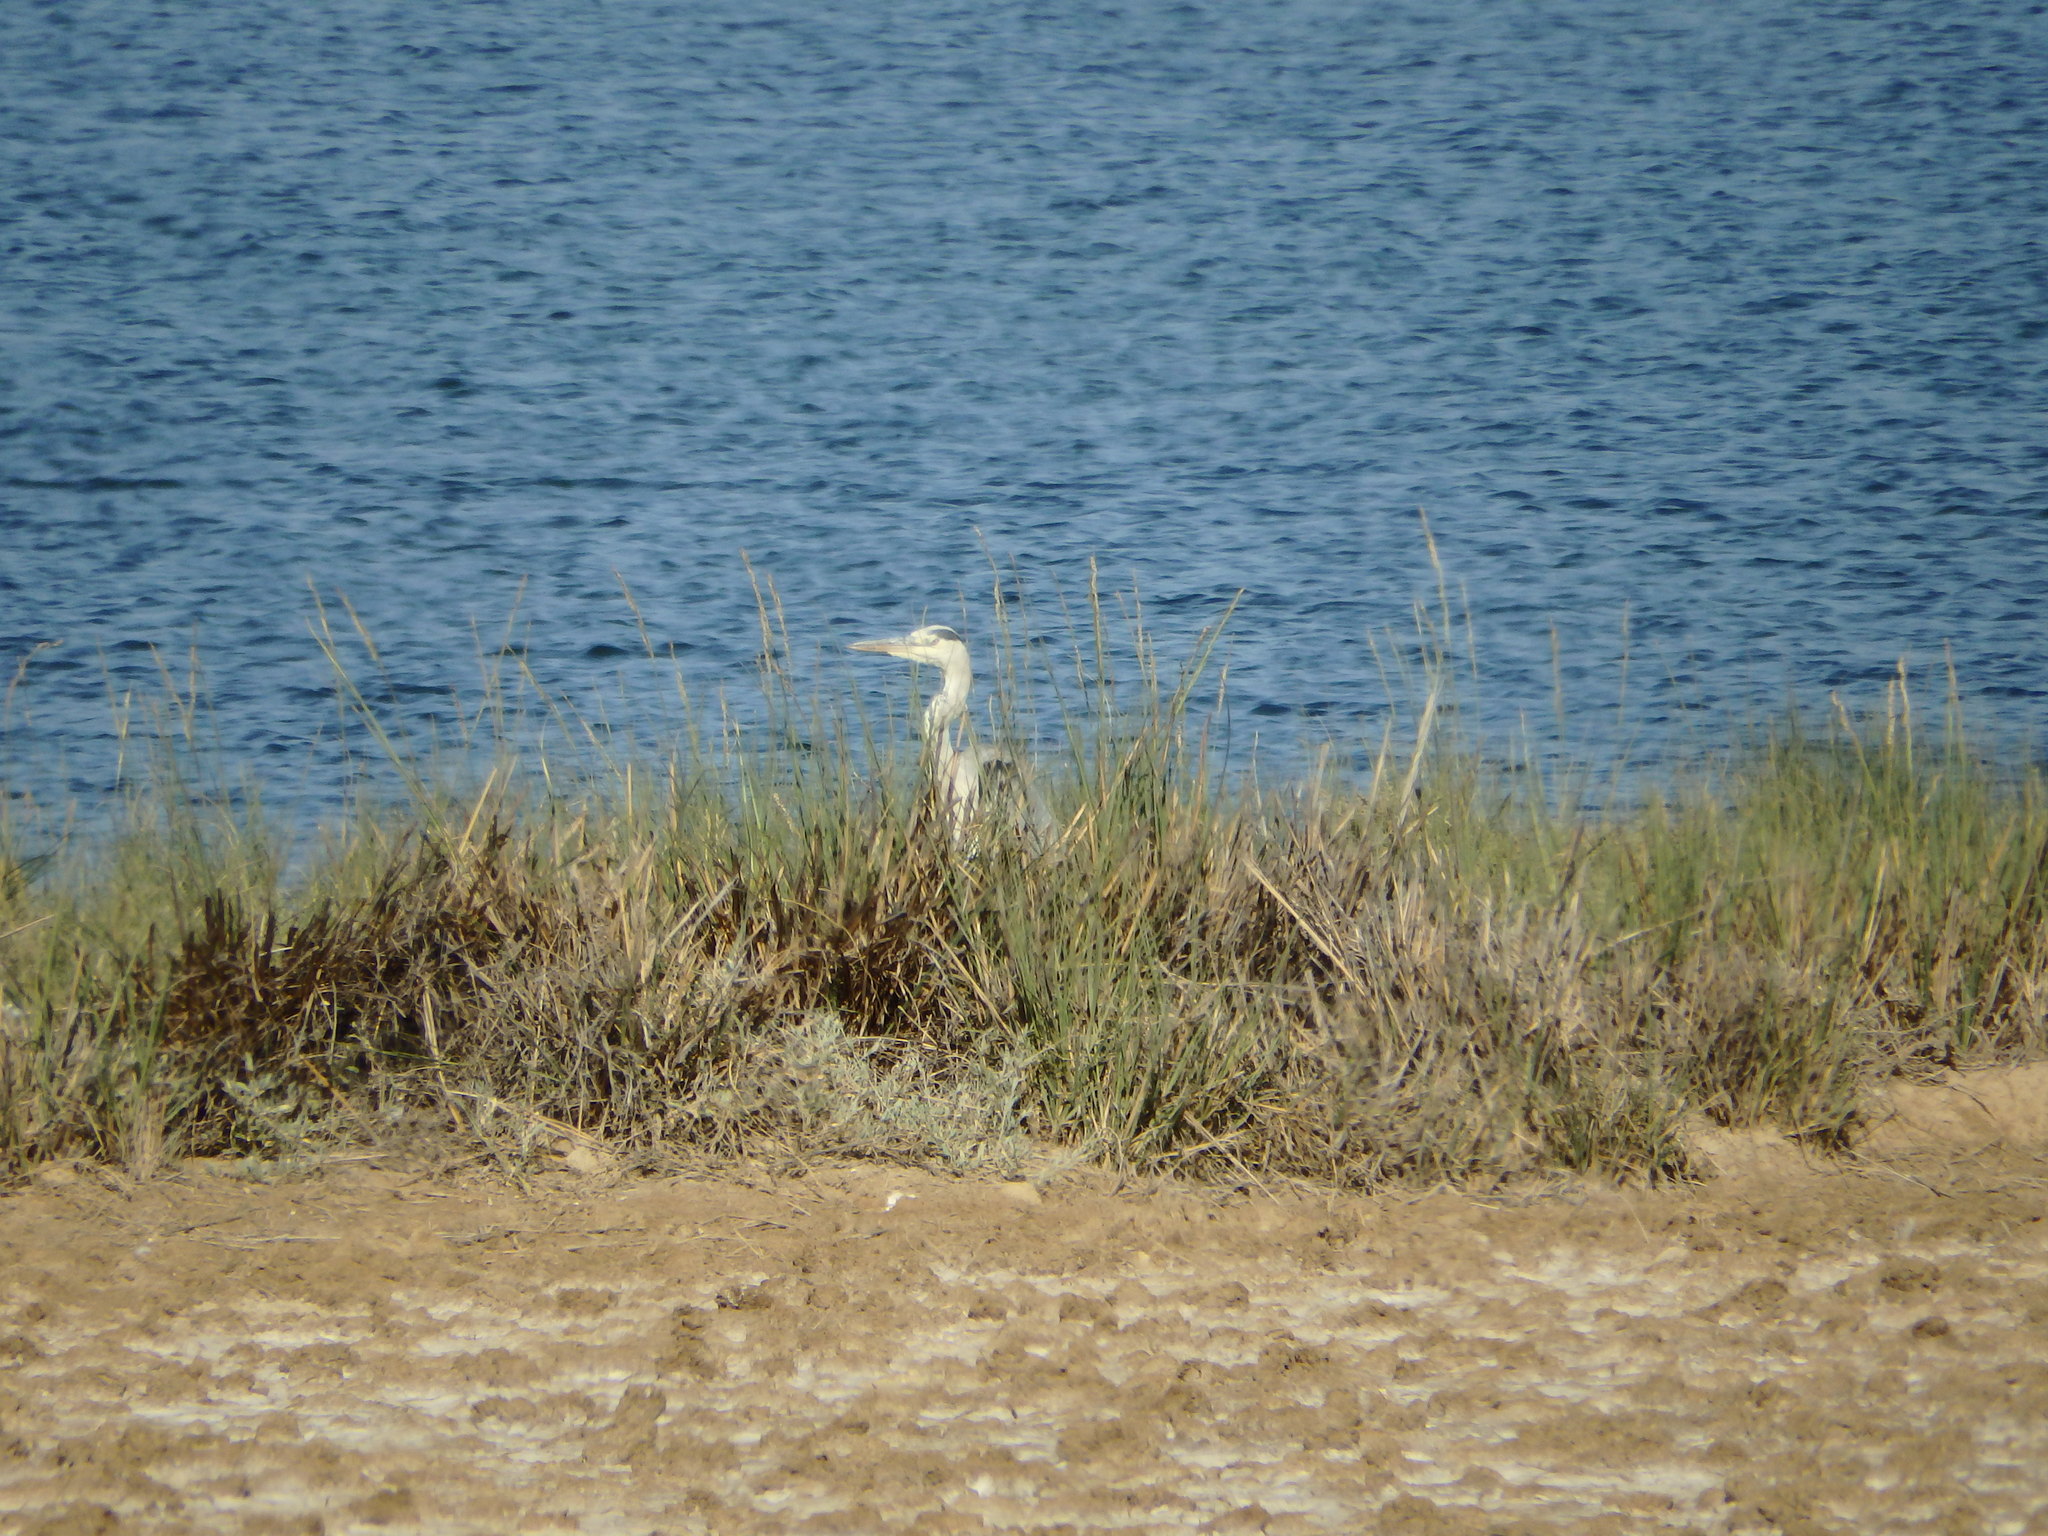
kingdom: Animalia
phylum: Chordata
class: Aves
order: Pelecaniformes
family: Ardeidae
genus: Ardea
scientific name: Ardea cinerea
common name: Grey heron
